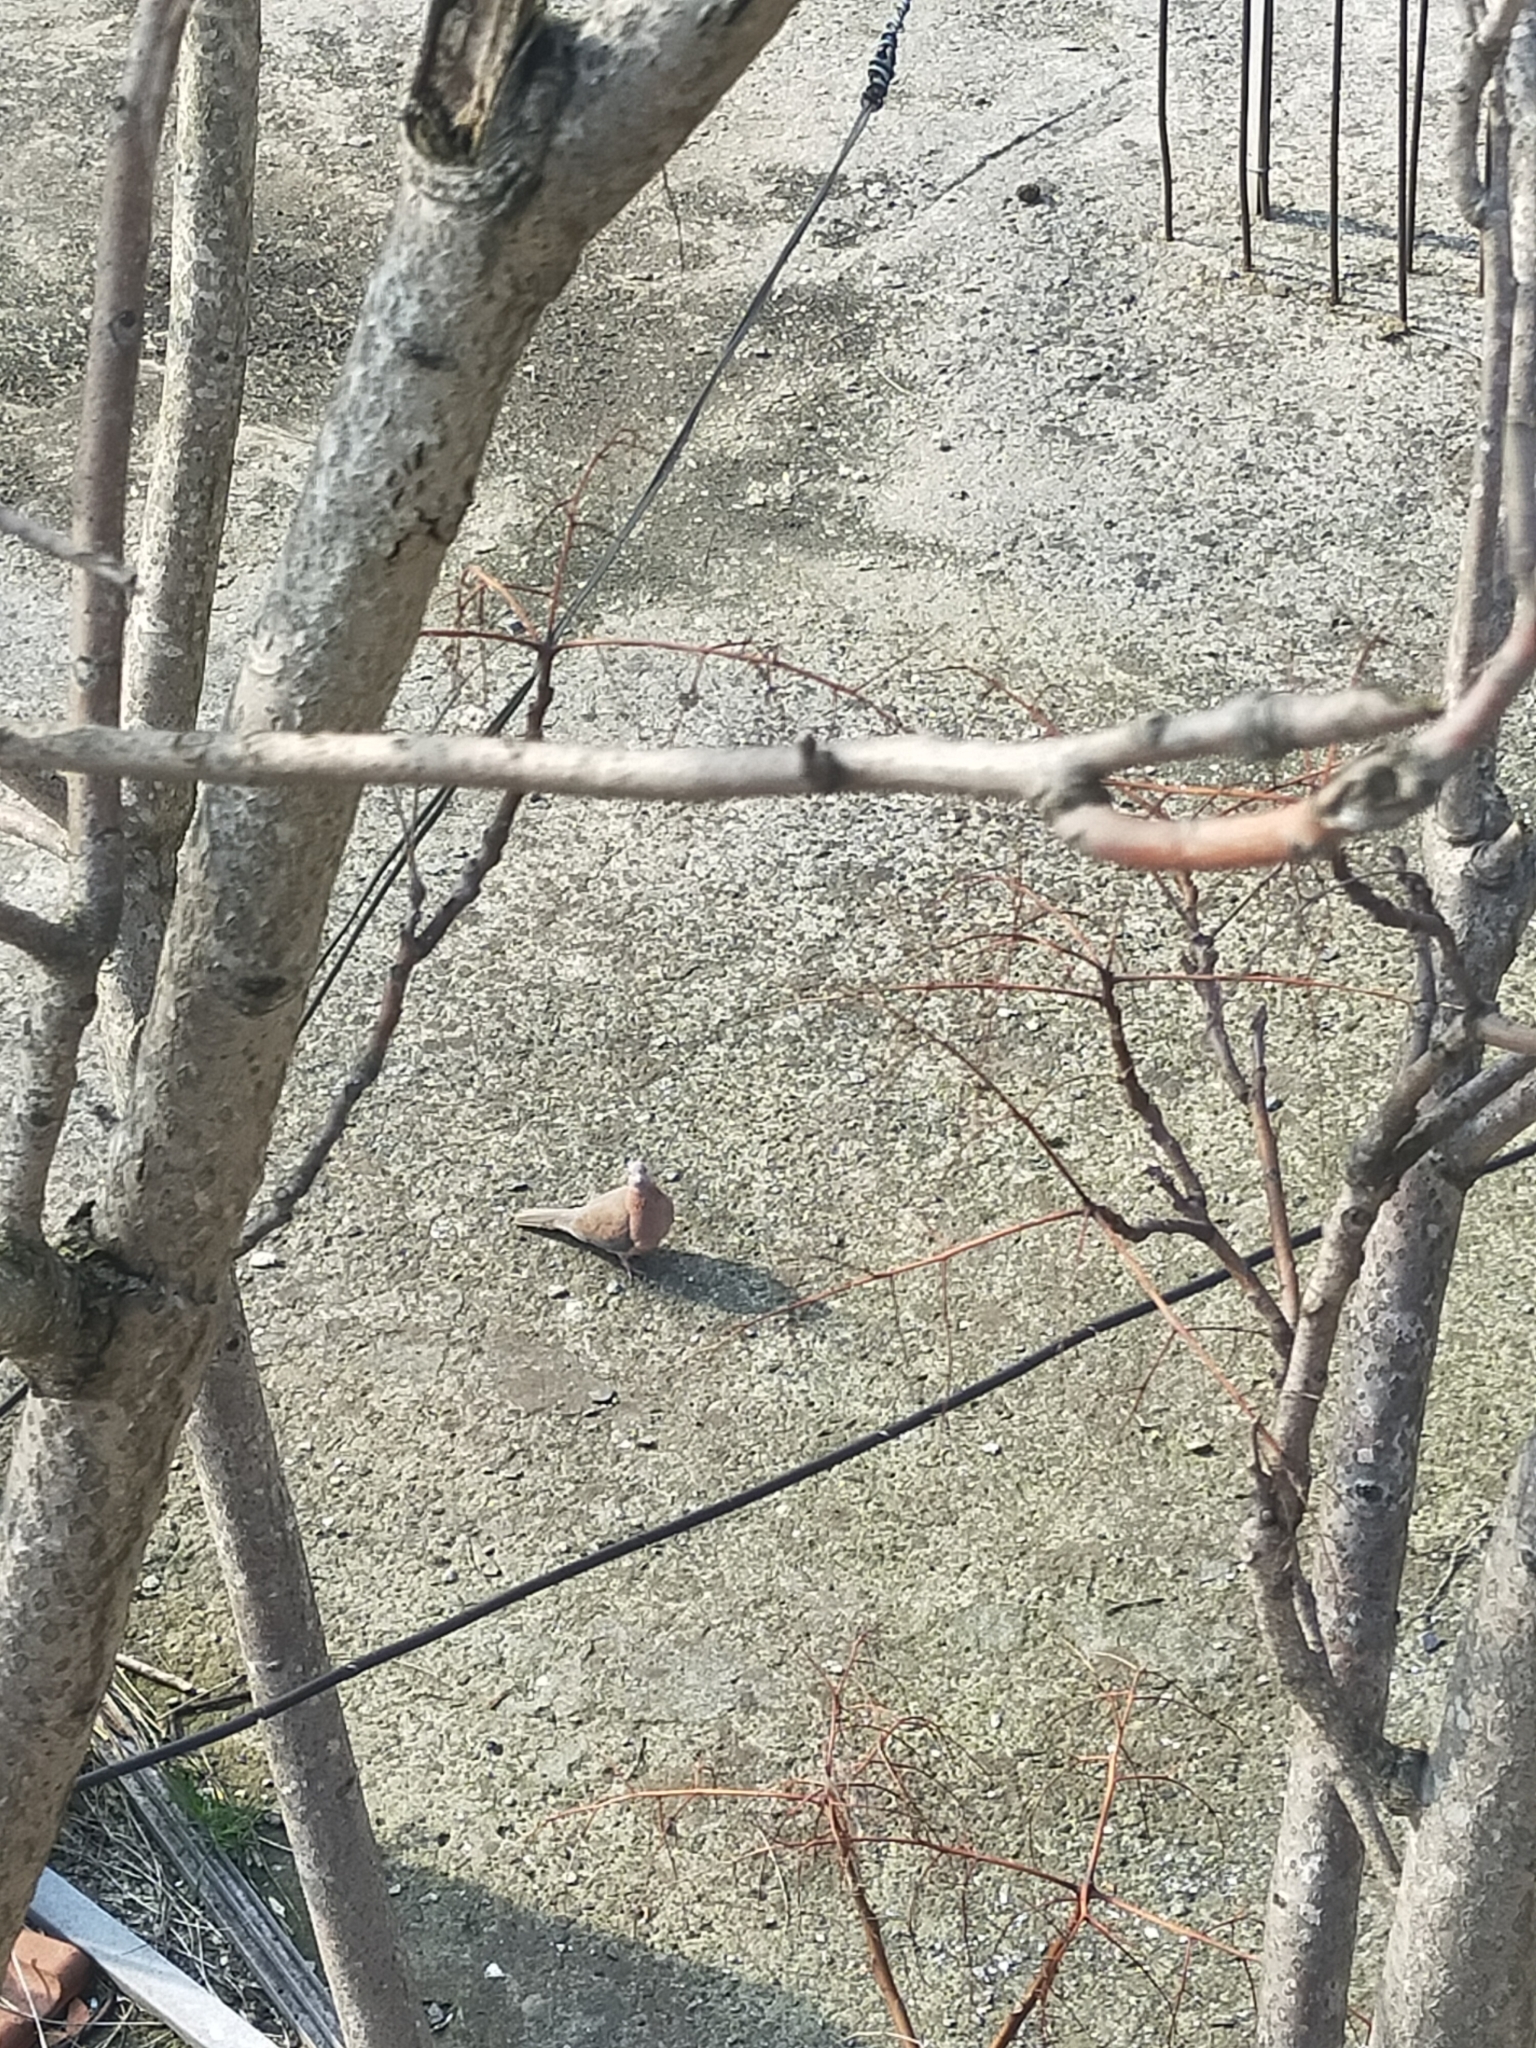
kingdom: Animalia
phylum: Chordata
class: Aves
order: Columbiformes
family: Columbidae
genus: Spilopelia
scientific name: Spilopelia senegalensis
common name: Laughing dove
